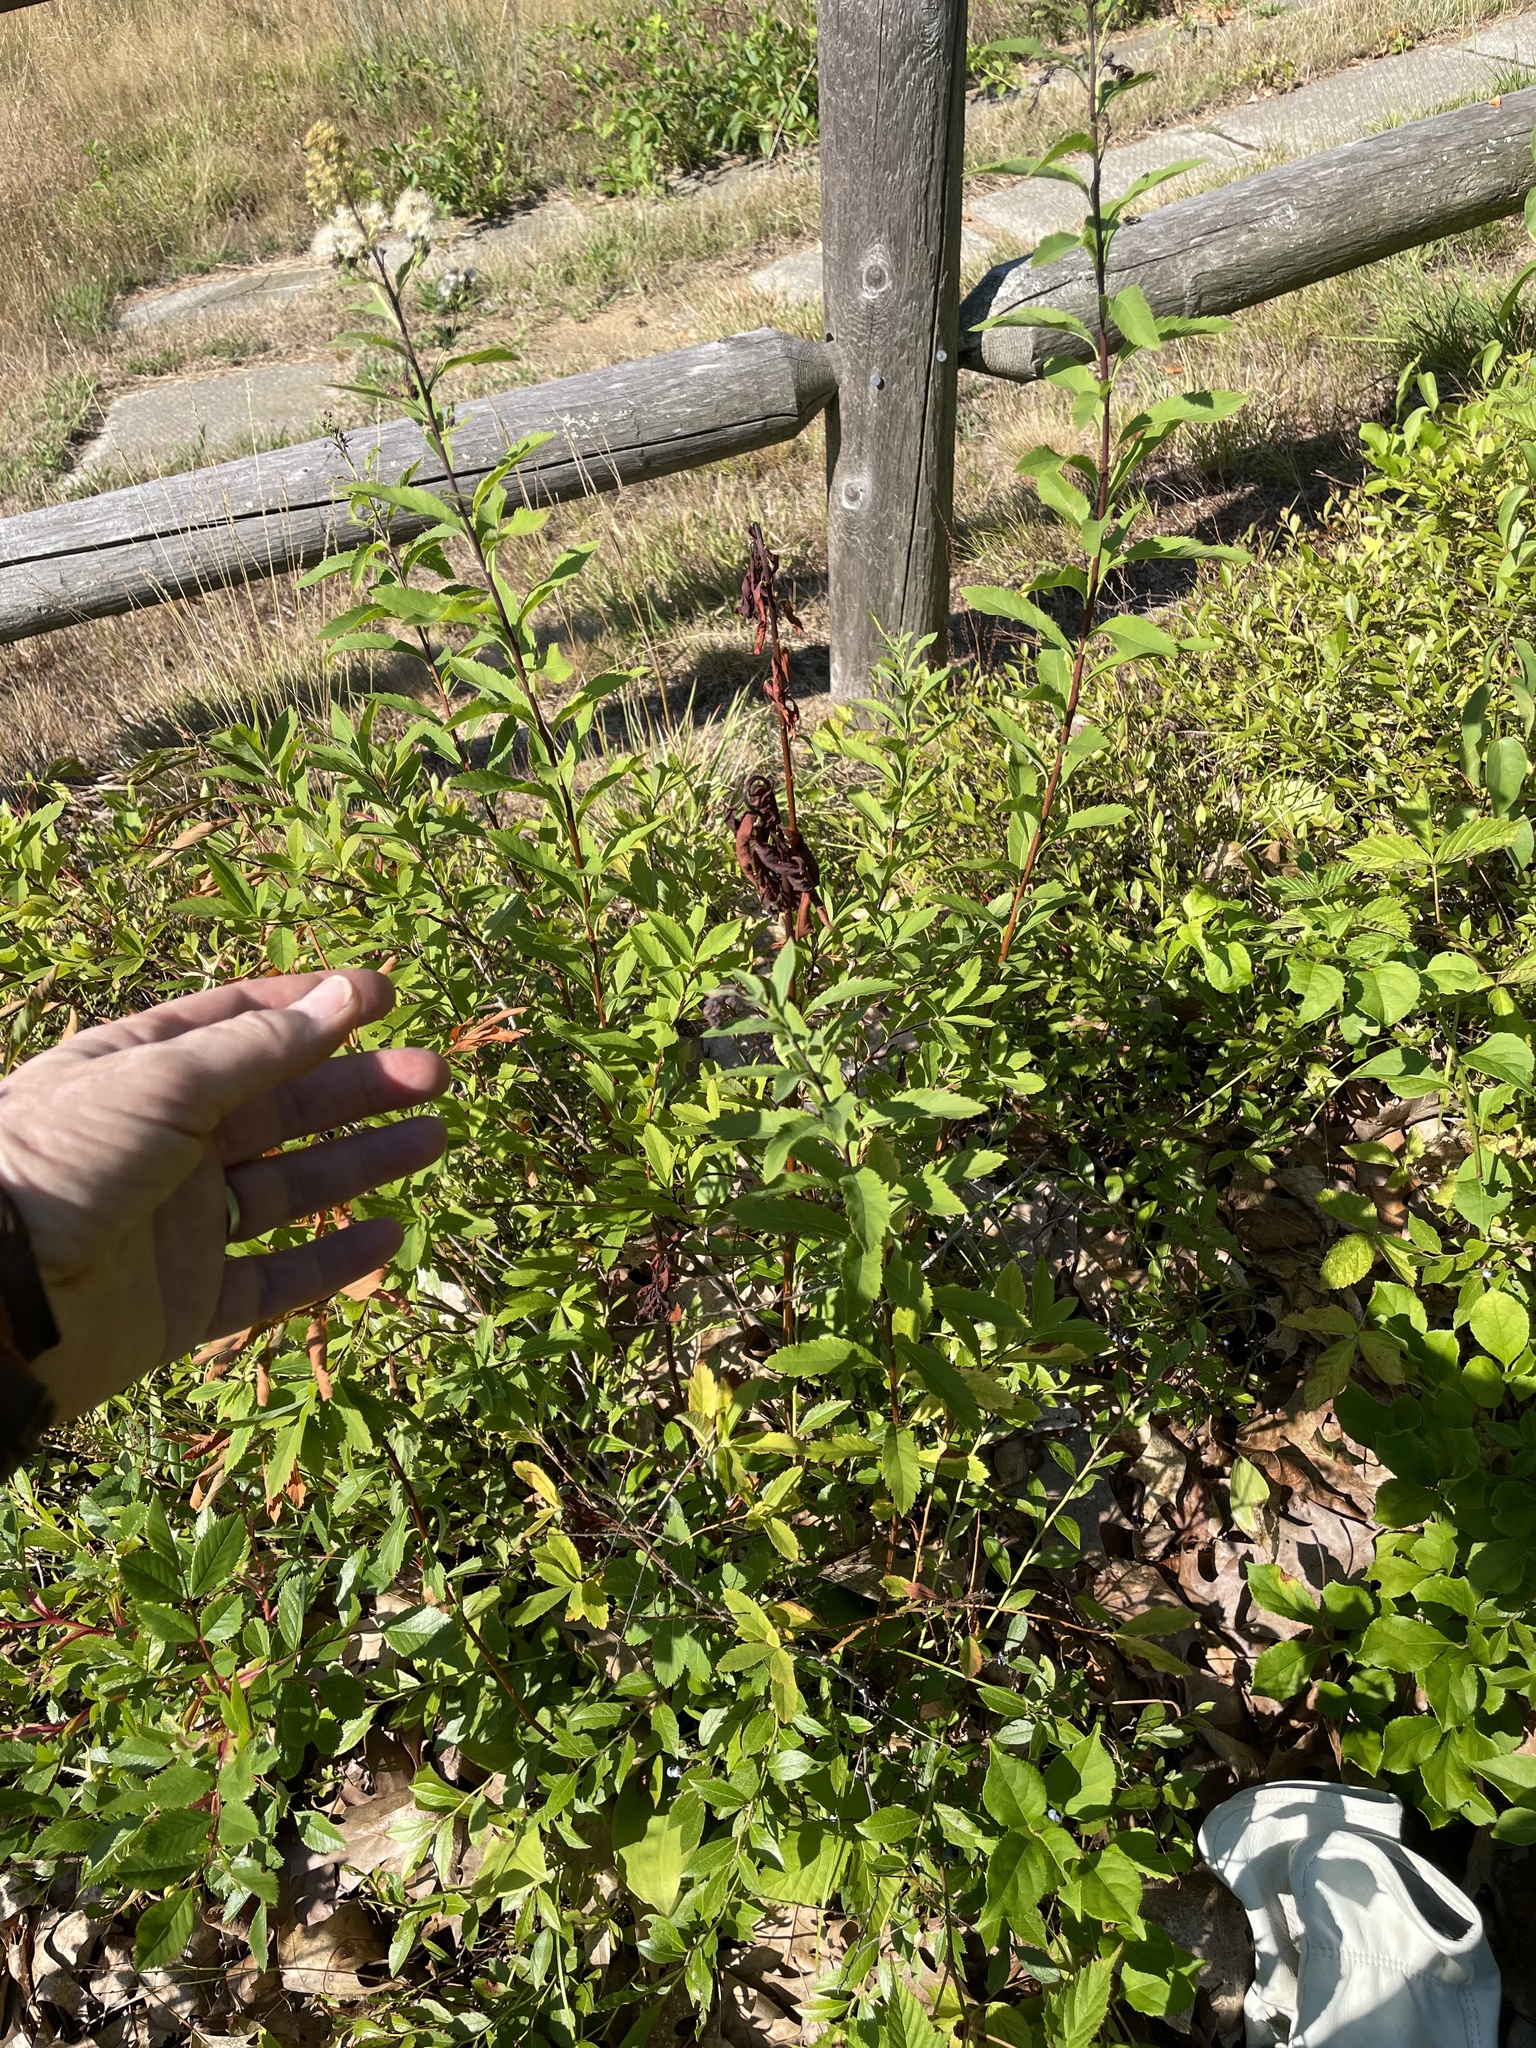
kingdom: Plantae
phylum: Tracheophyta
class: Magnoliopsida
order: Rosales
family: Rosaceae
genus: Spiraea
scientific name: Spiraea alba
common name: Pale bridewort
